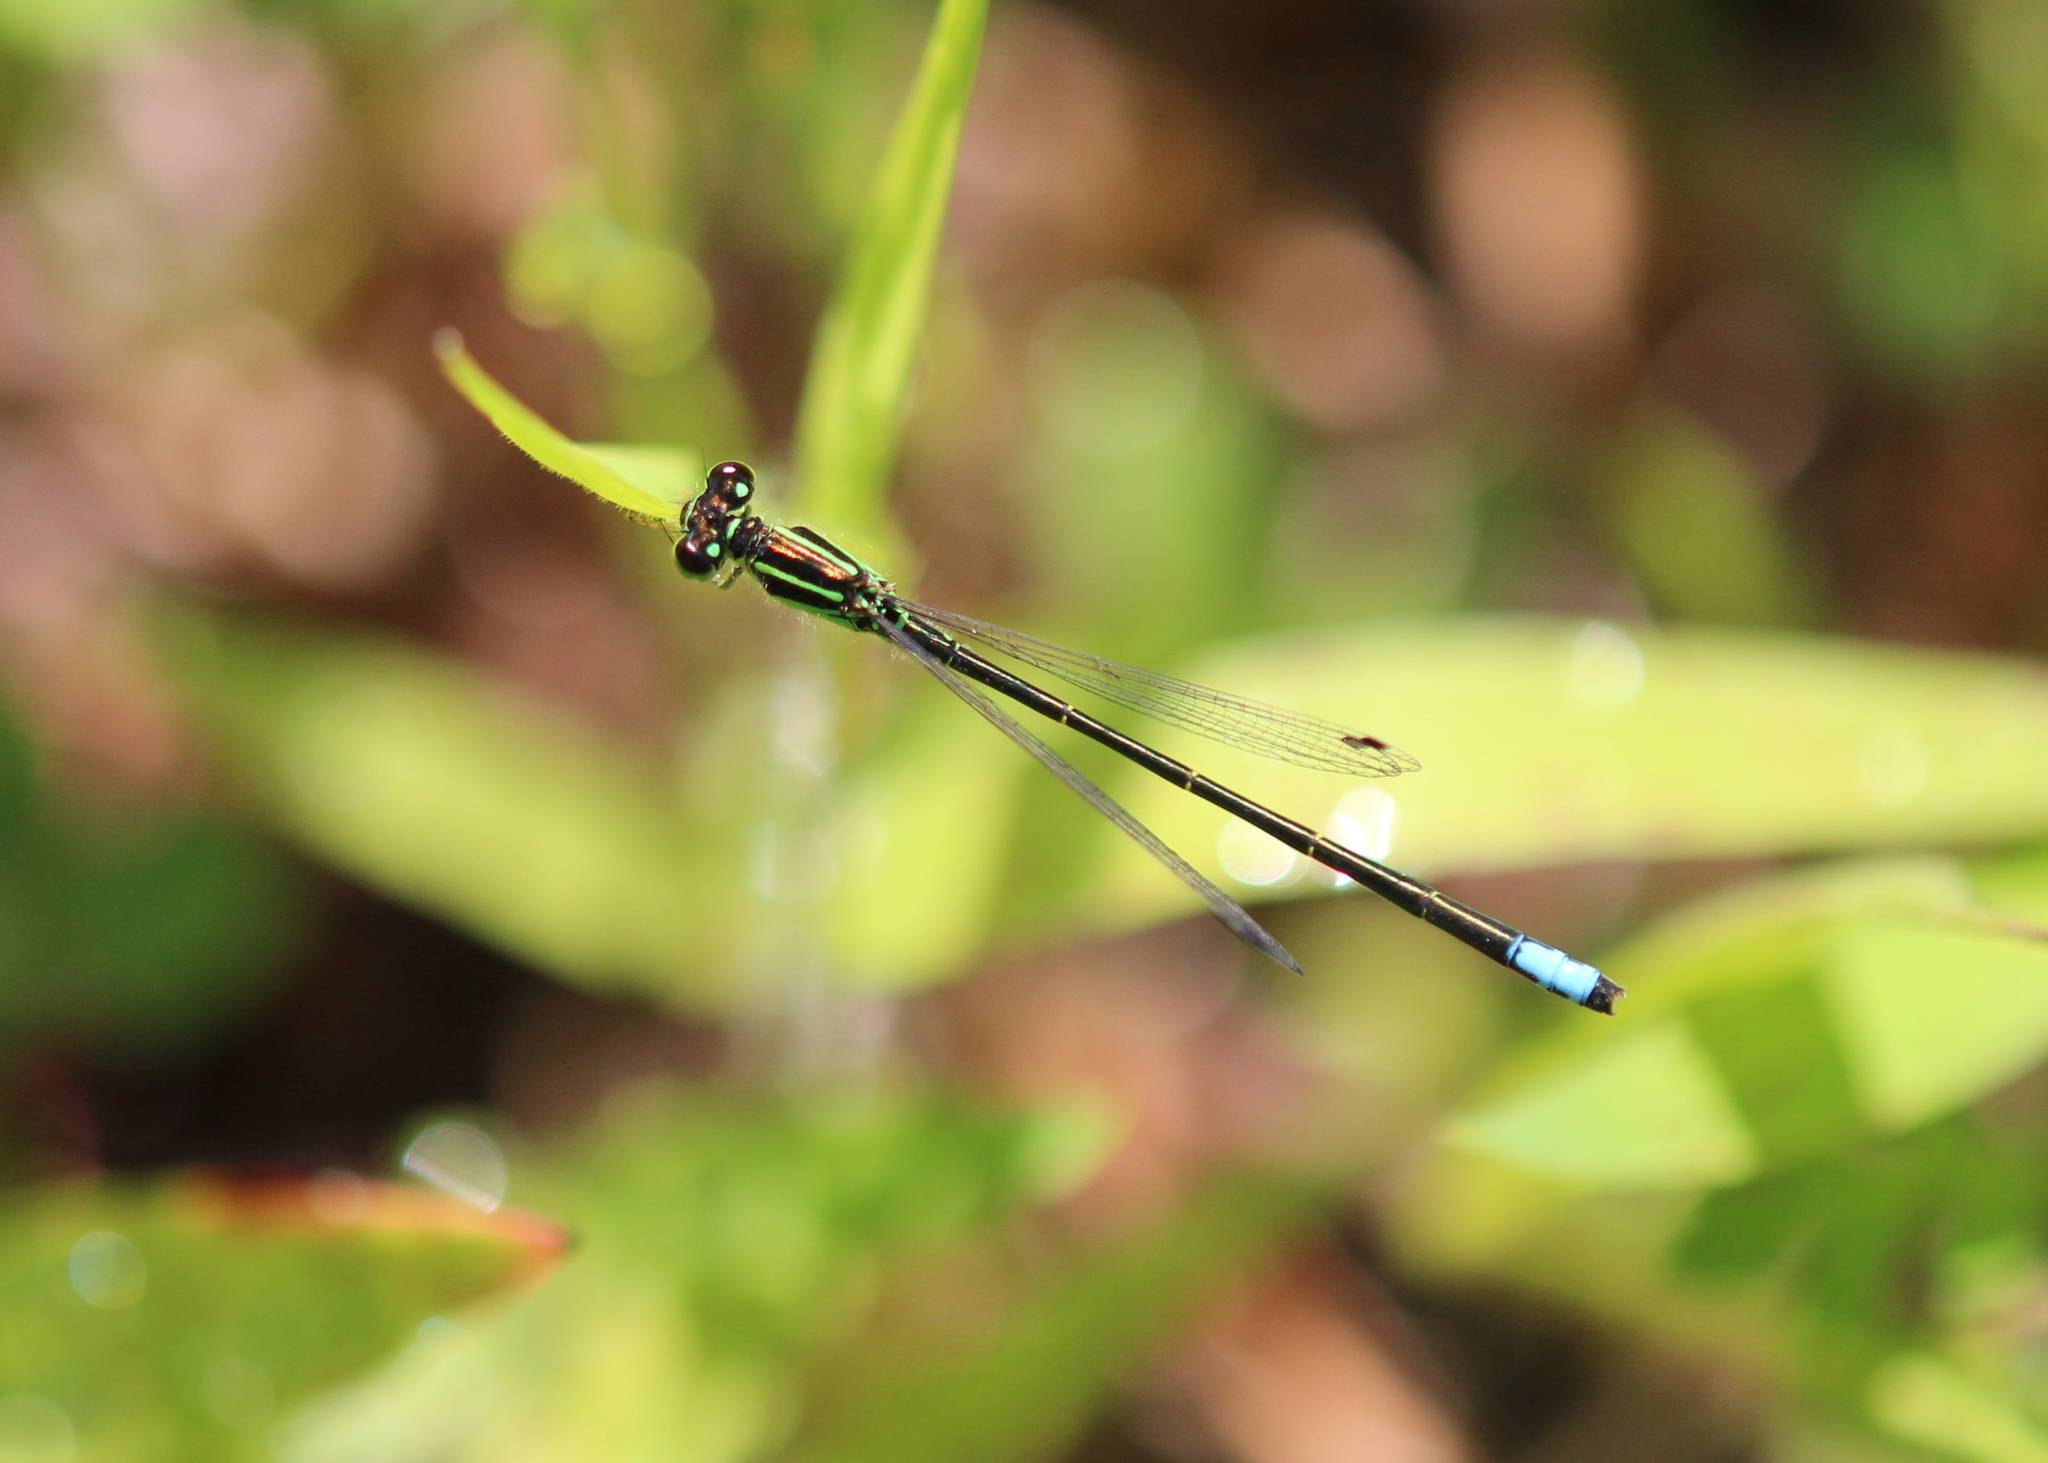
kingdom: Animalia
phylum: Arthropoda
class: Insecta
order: Odonata
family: Coenagrionidae
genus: Ischnura
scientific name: Ischnura verticalis
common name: Eastern forktail
